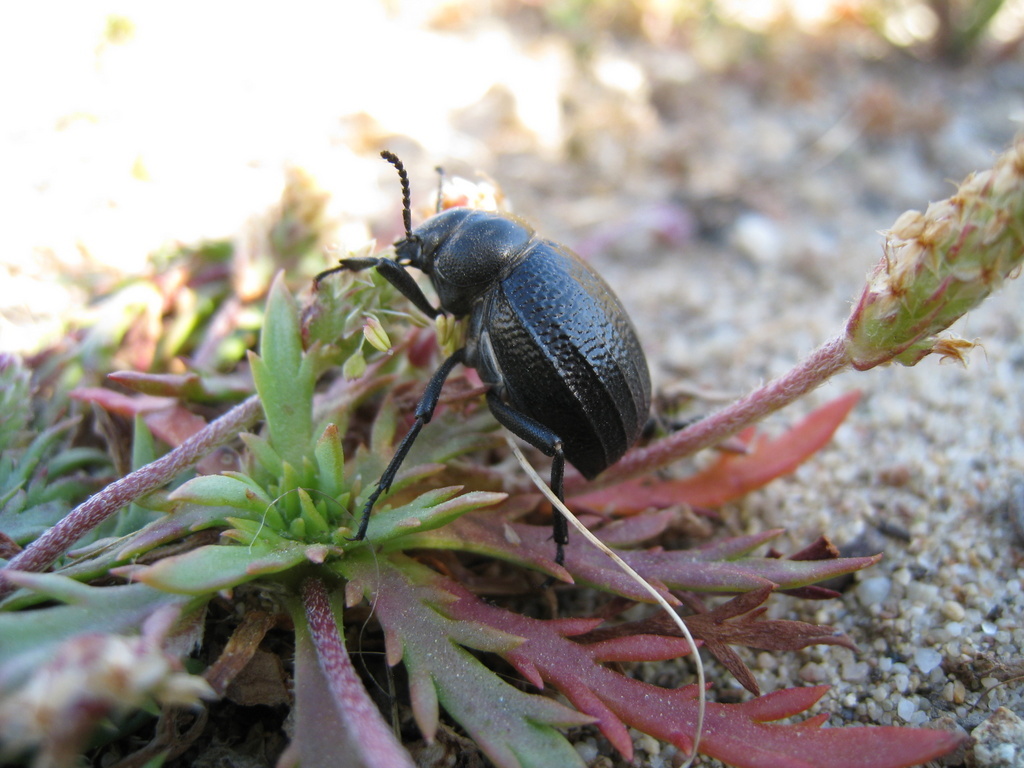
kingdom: Animalia
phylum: Arthropoda
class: Insecta
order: Coleoptera
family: Tenebrionidae
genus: Pimelia
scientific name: Pimelia payraudi
